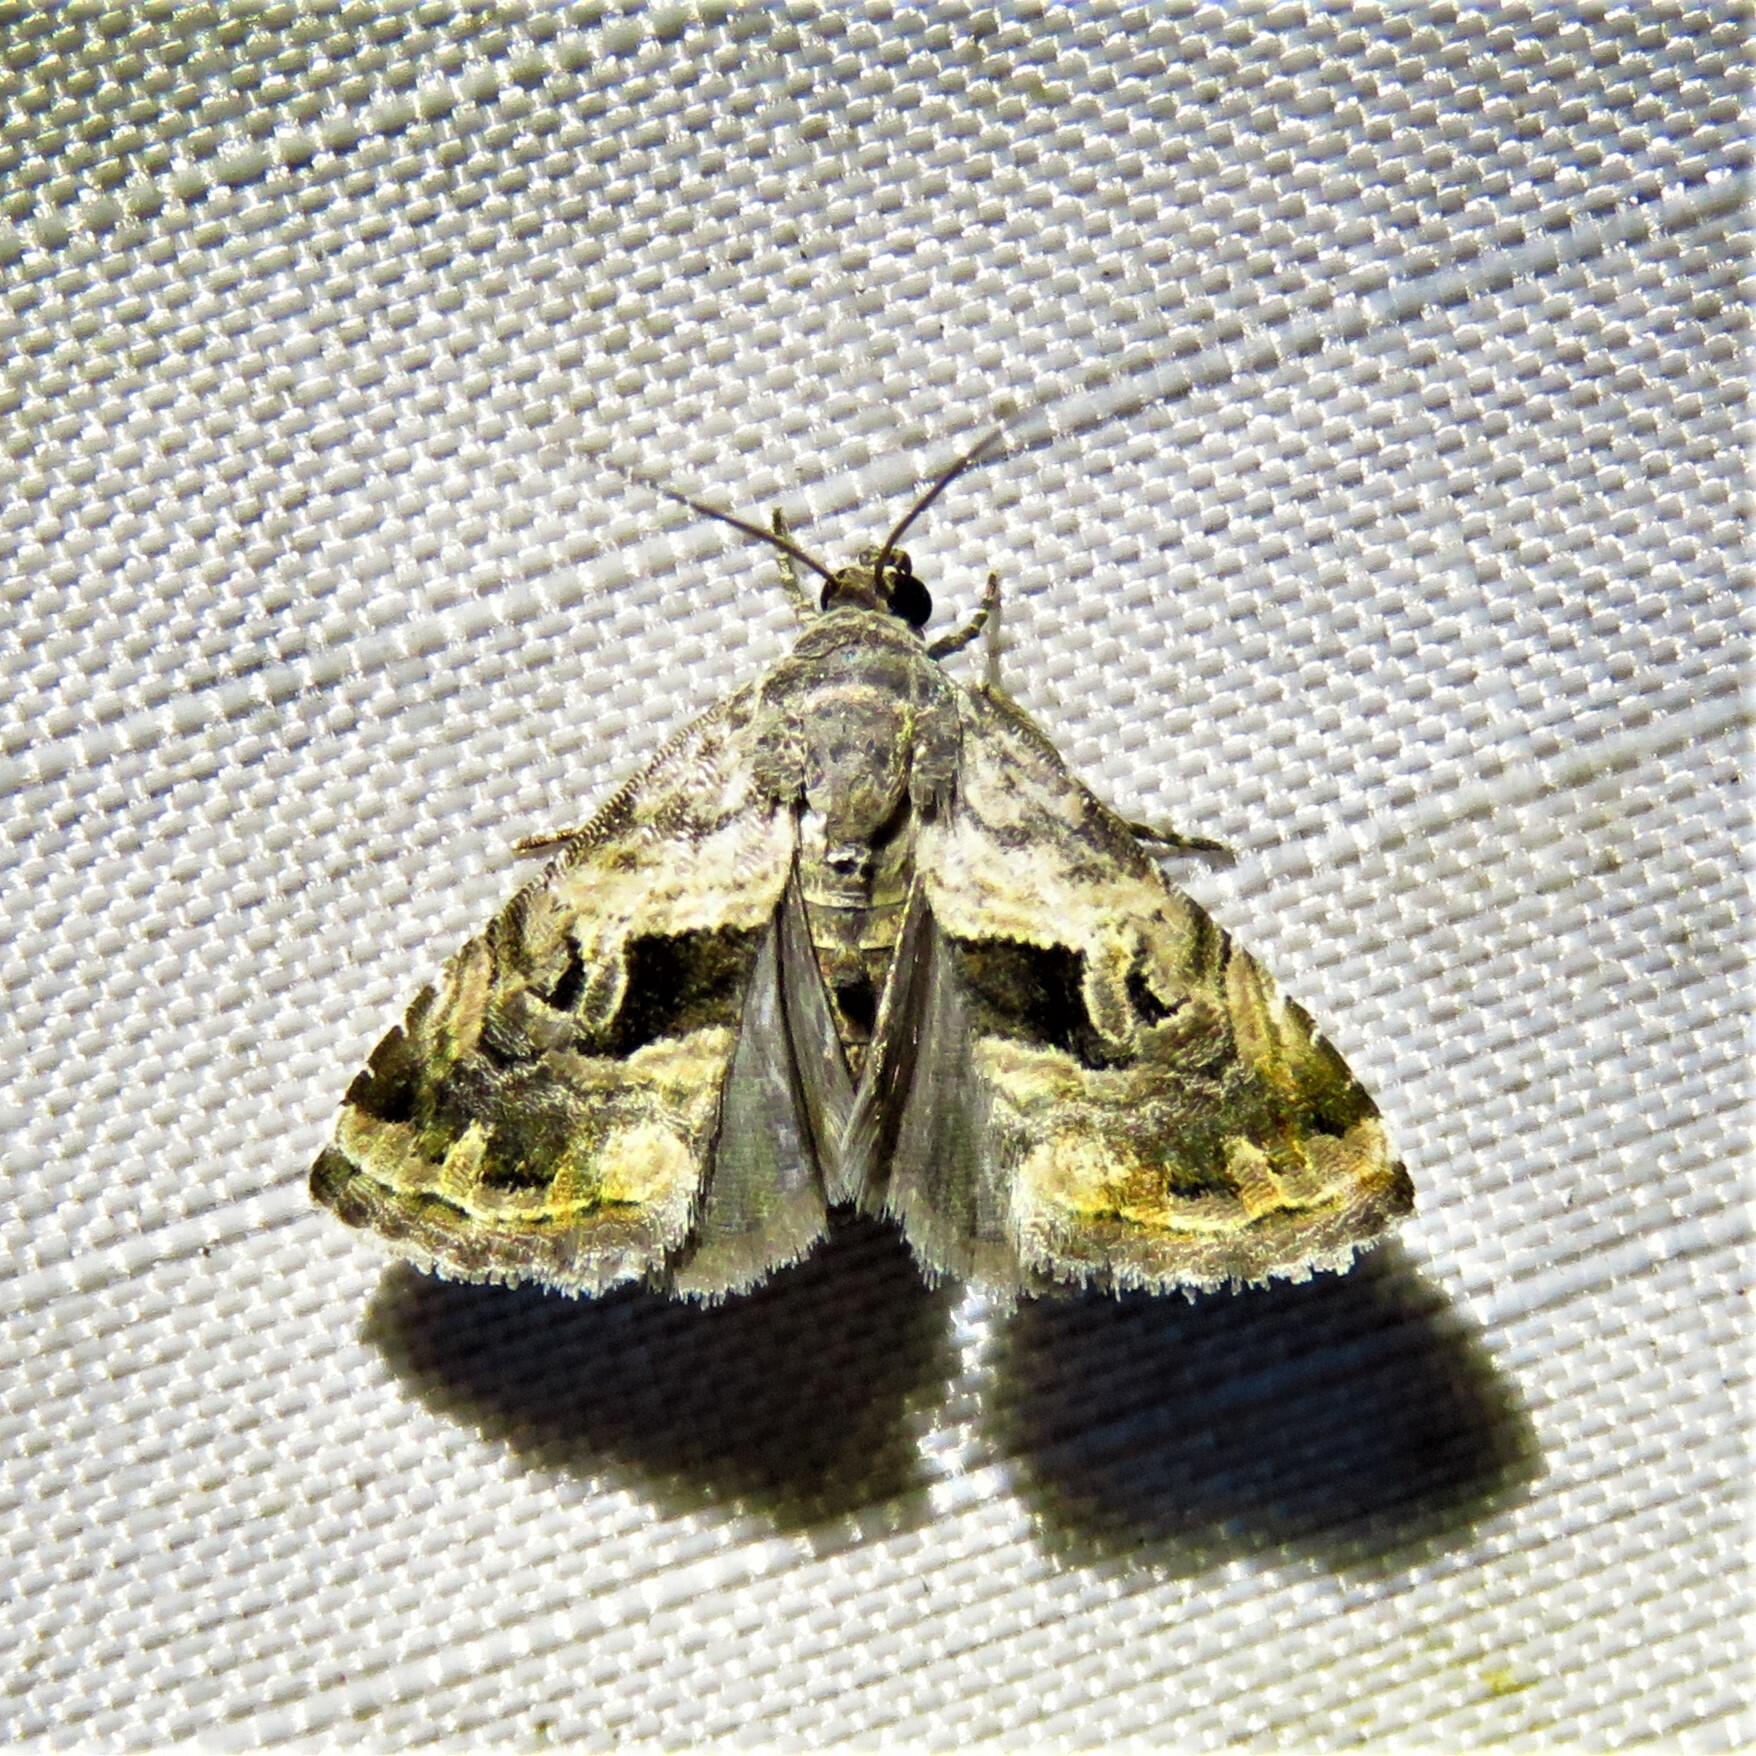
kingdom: Animalia
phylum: Arthropoda
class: Insecta
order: Lepidoptera
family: Noctuidae
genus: Tripudia
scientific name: Tripudia quadrifera
